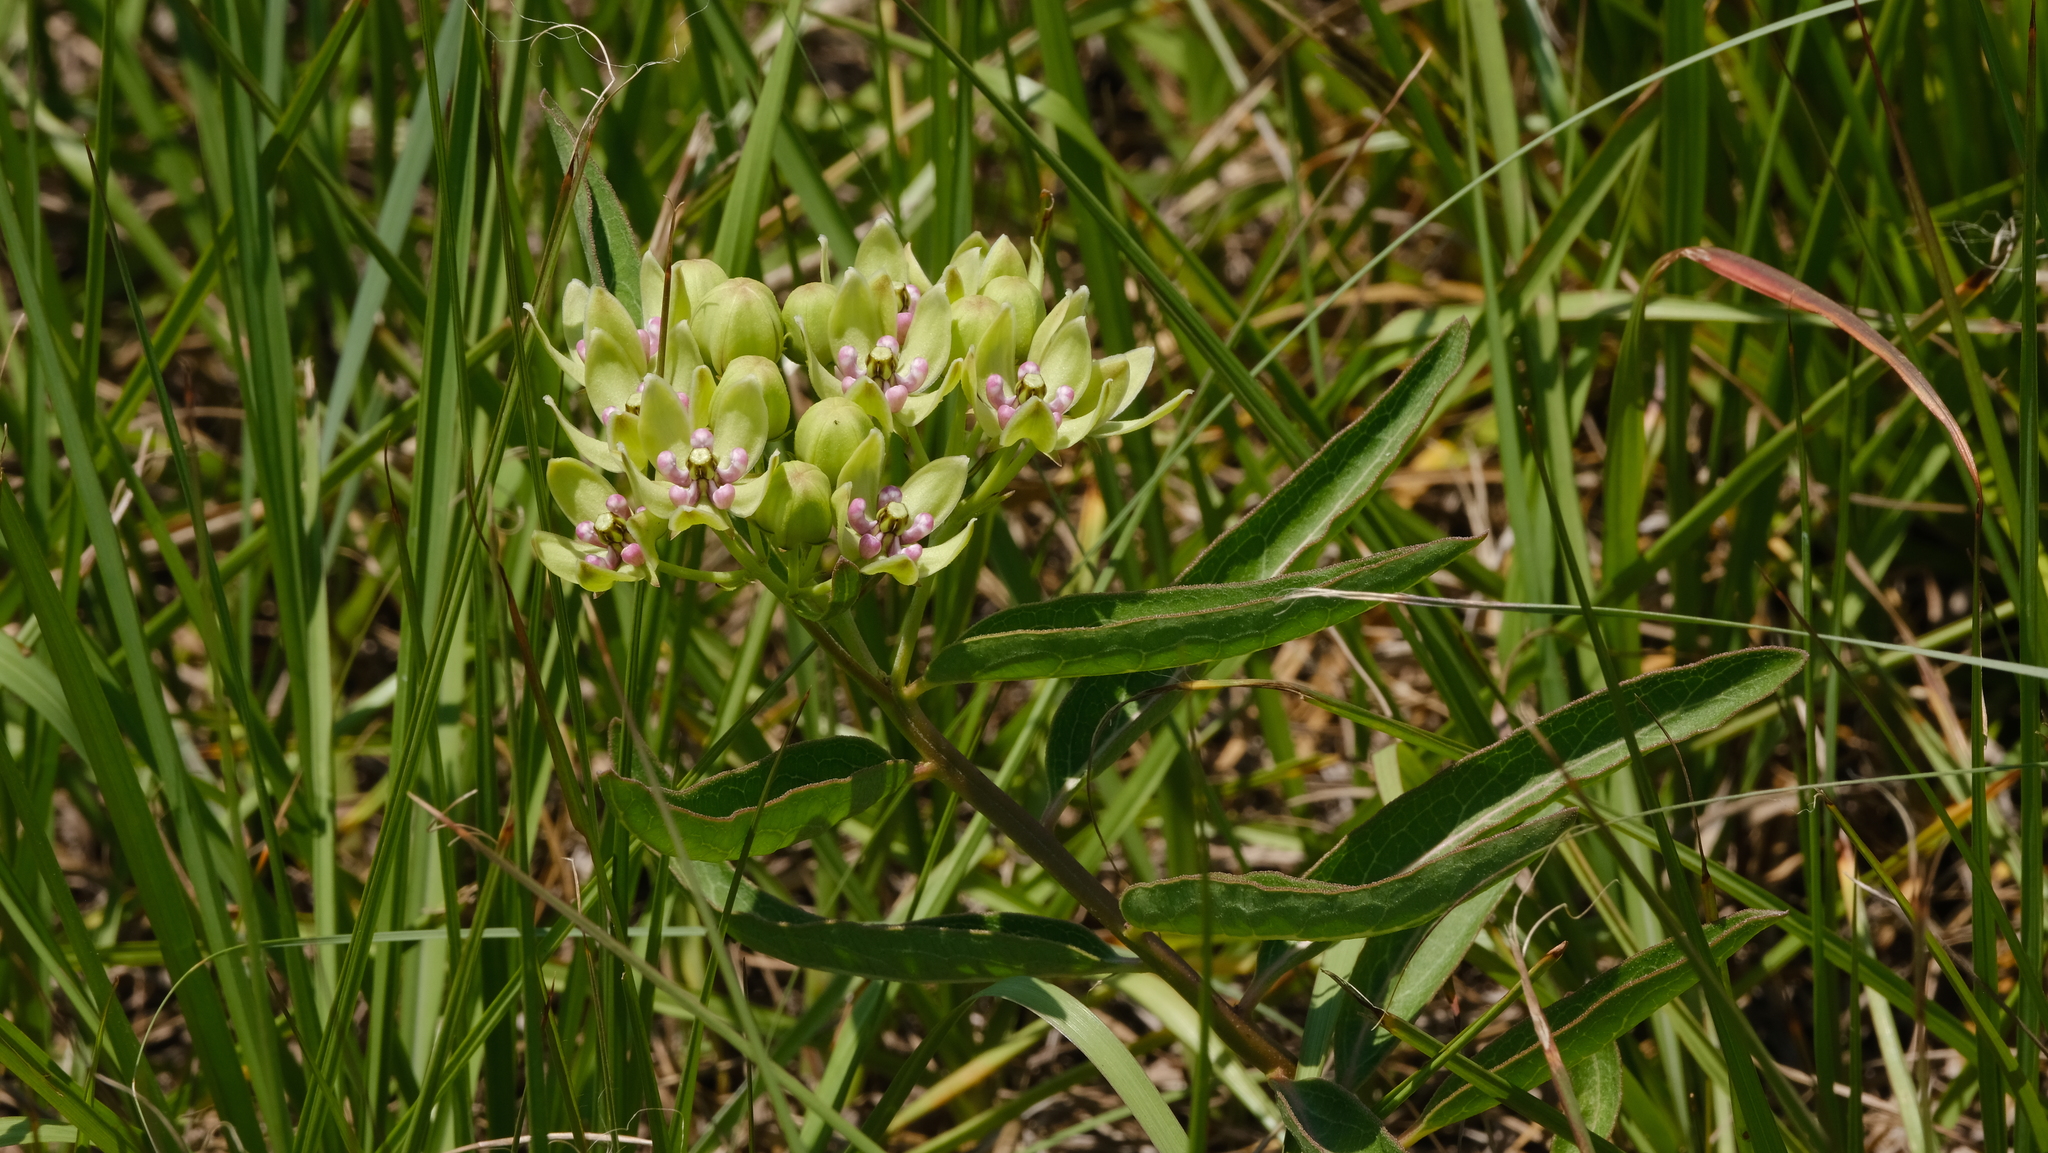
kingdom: Plantae
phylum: Tracheophyta
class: Magnoliopsida
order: Gentianales
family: Apocynaceae
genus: Asclepias
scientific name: Asclepias viridis
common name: Antelope-horns
